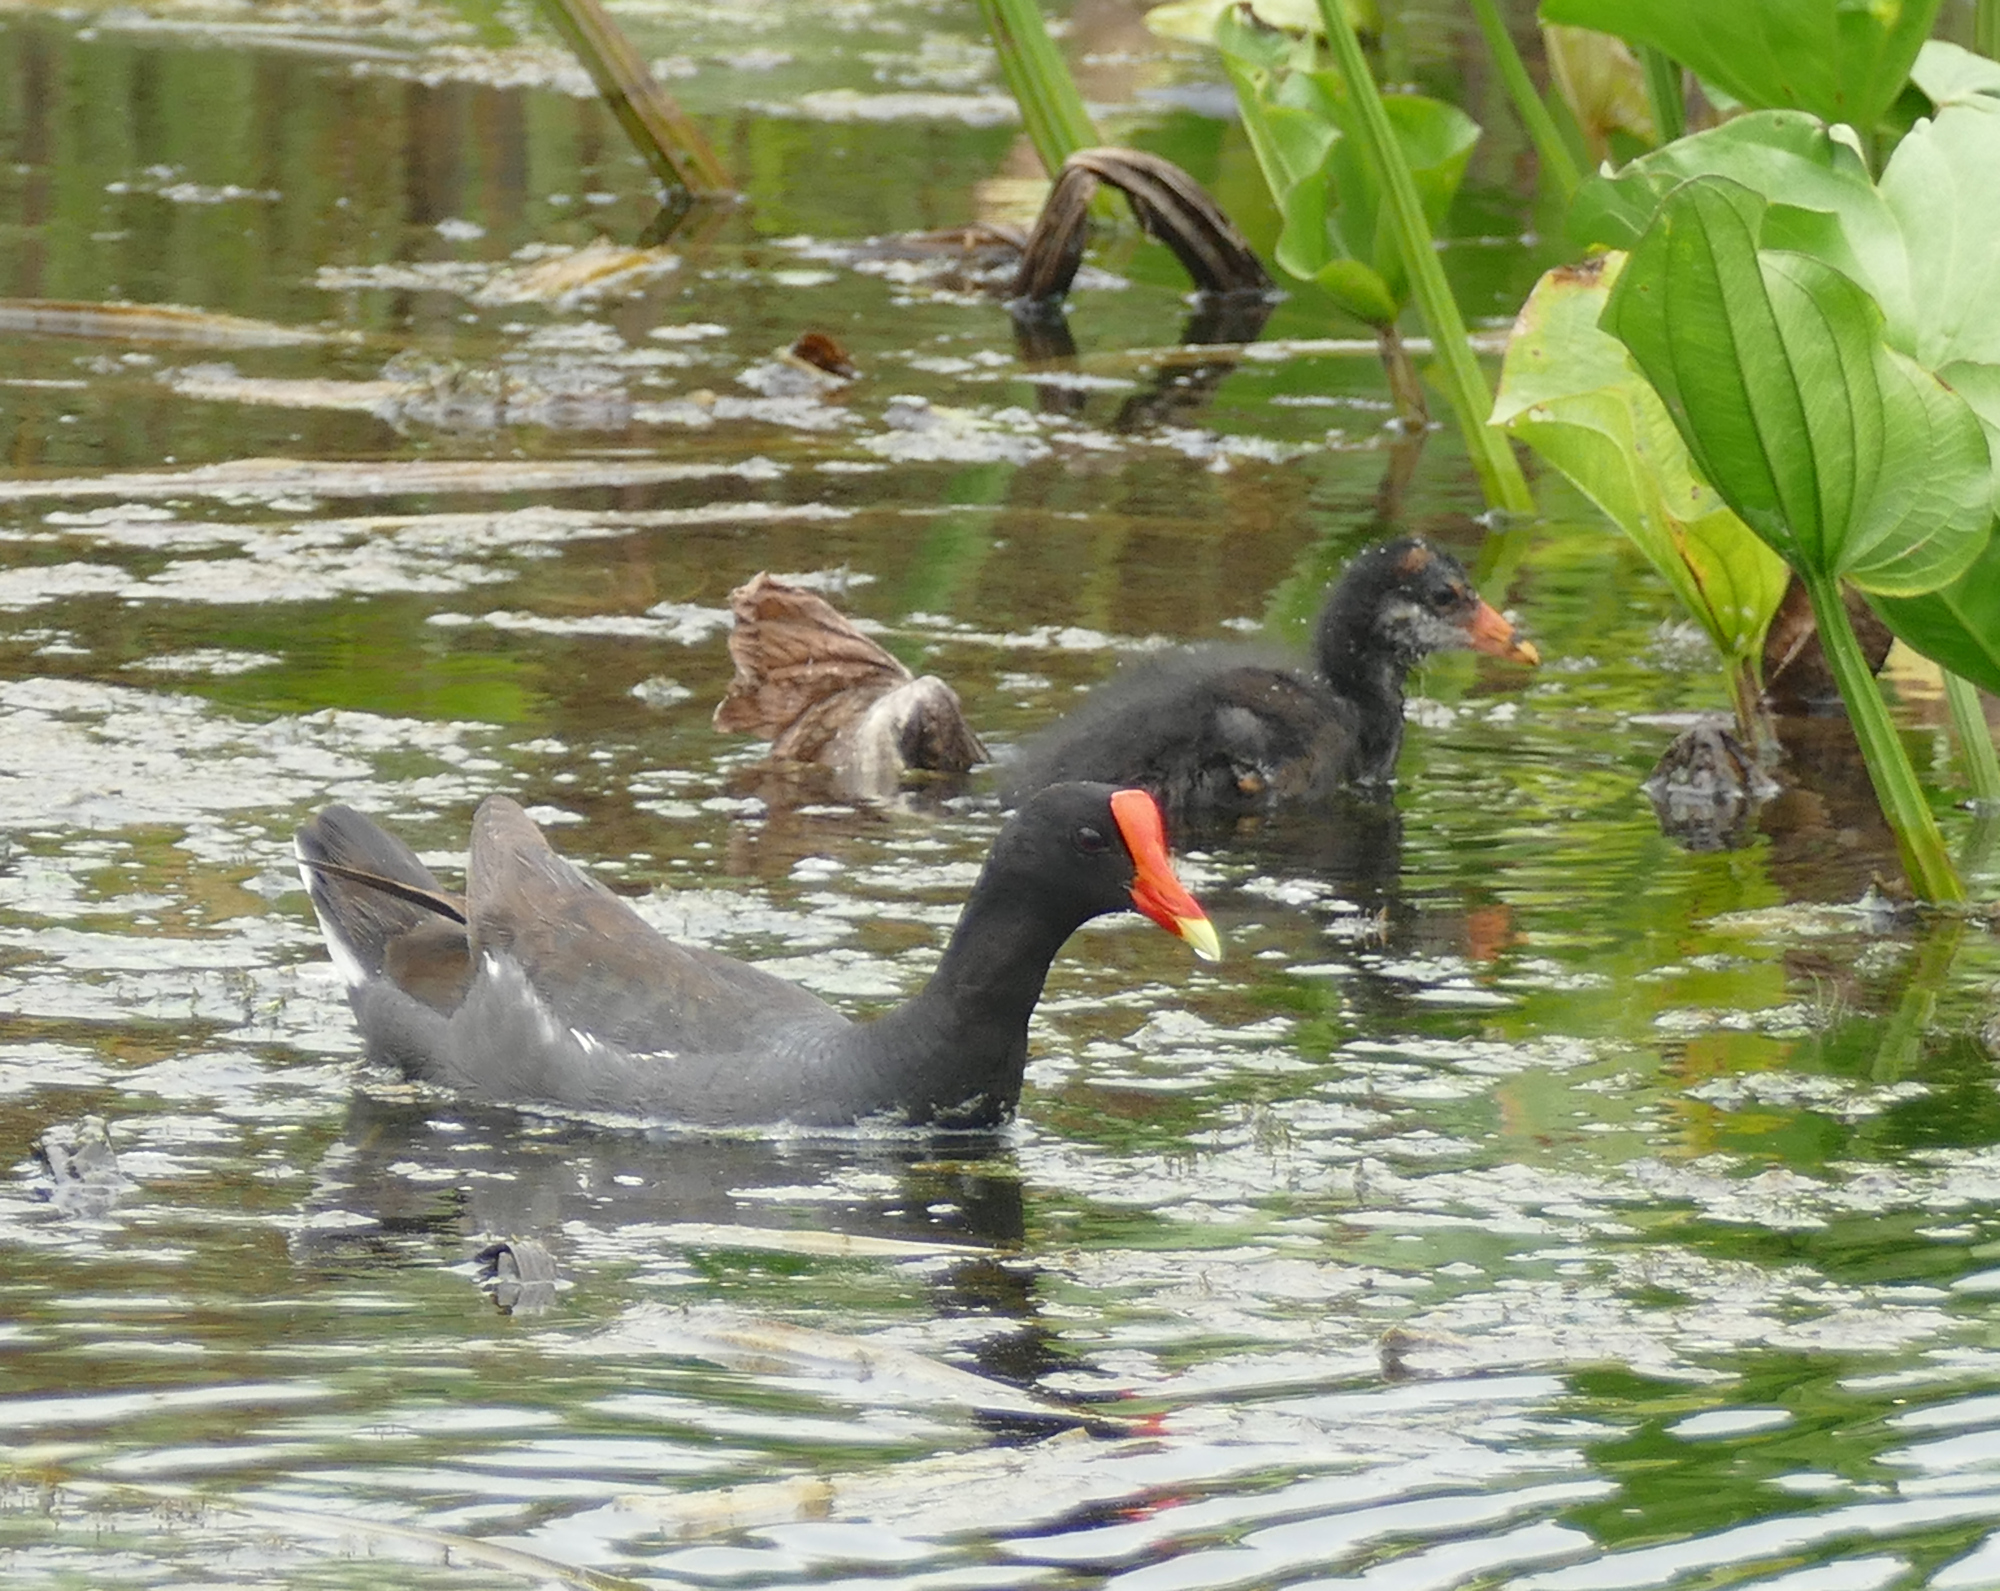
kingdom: Animalia
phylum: Chordata
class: Aves
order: Gruiformes
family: Rallidae
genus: Gallinula
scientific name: Gallinula chloropus
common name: Common moorhen
